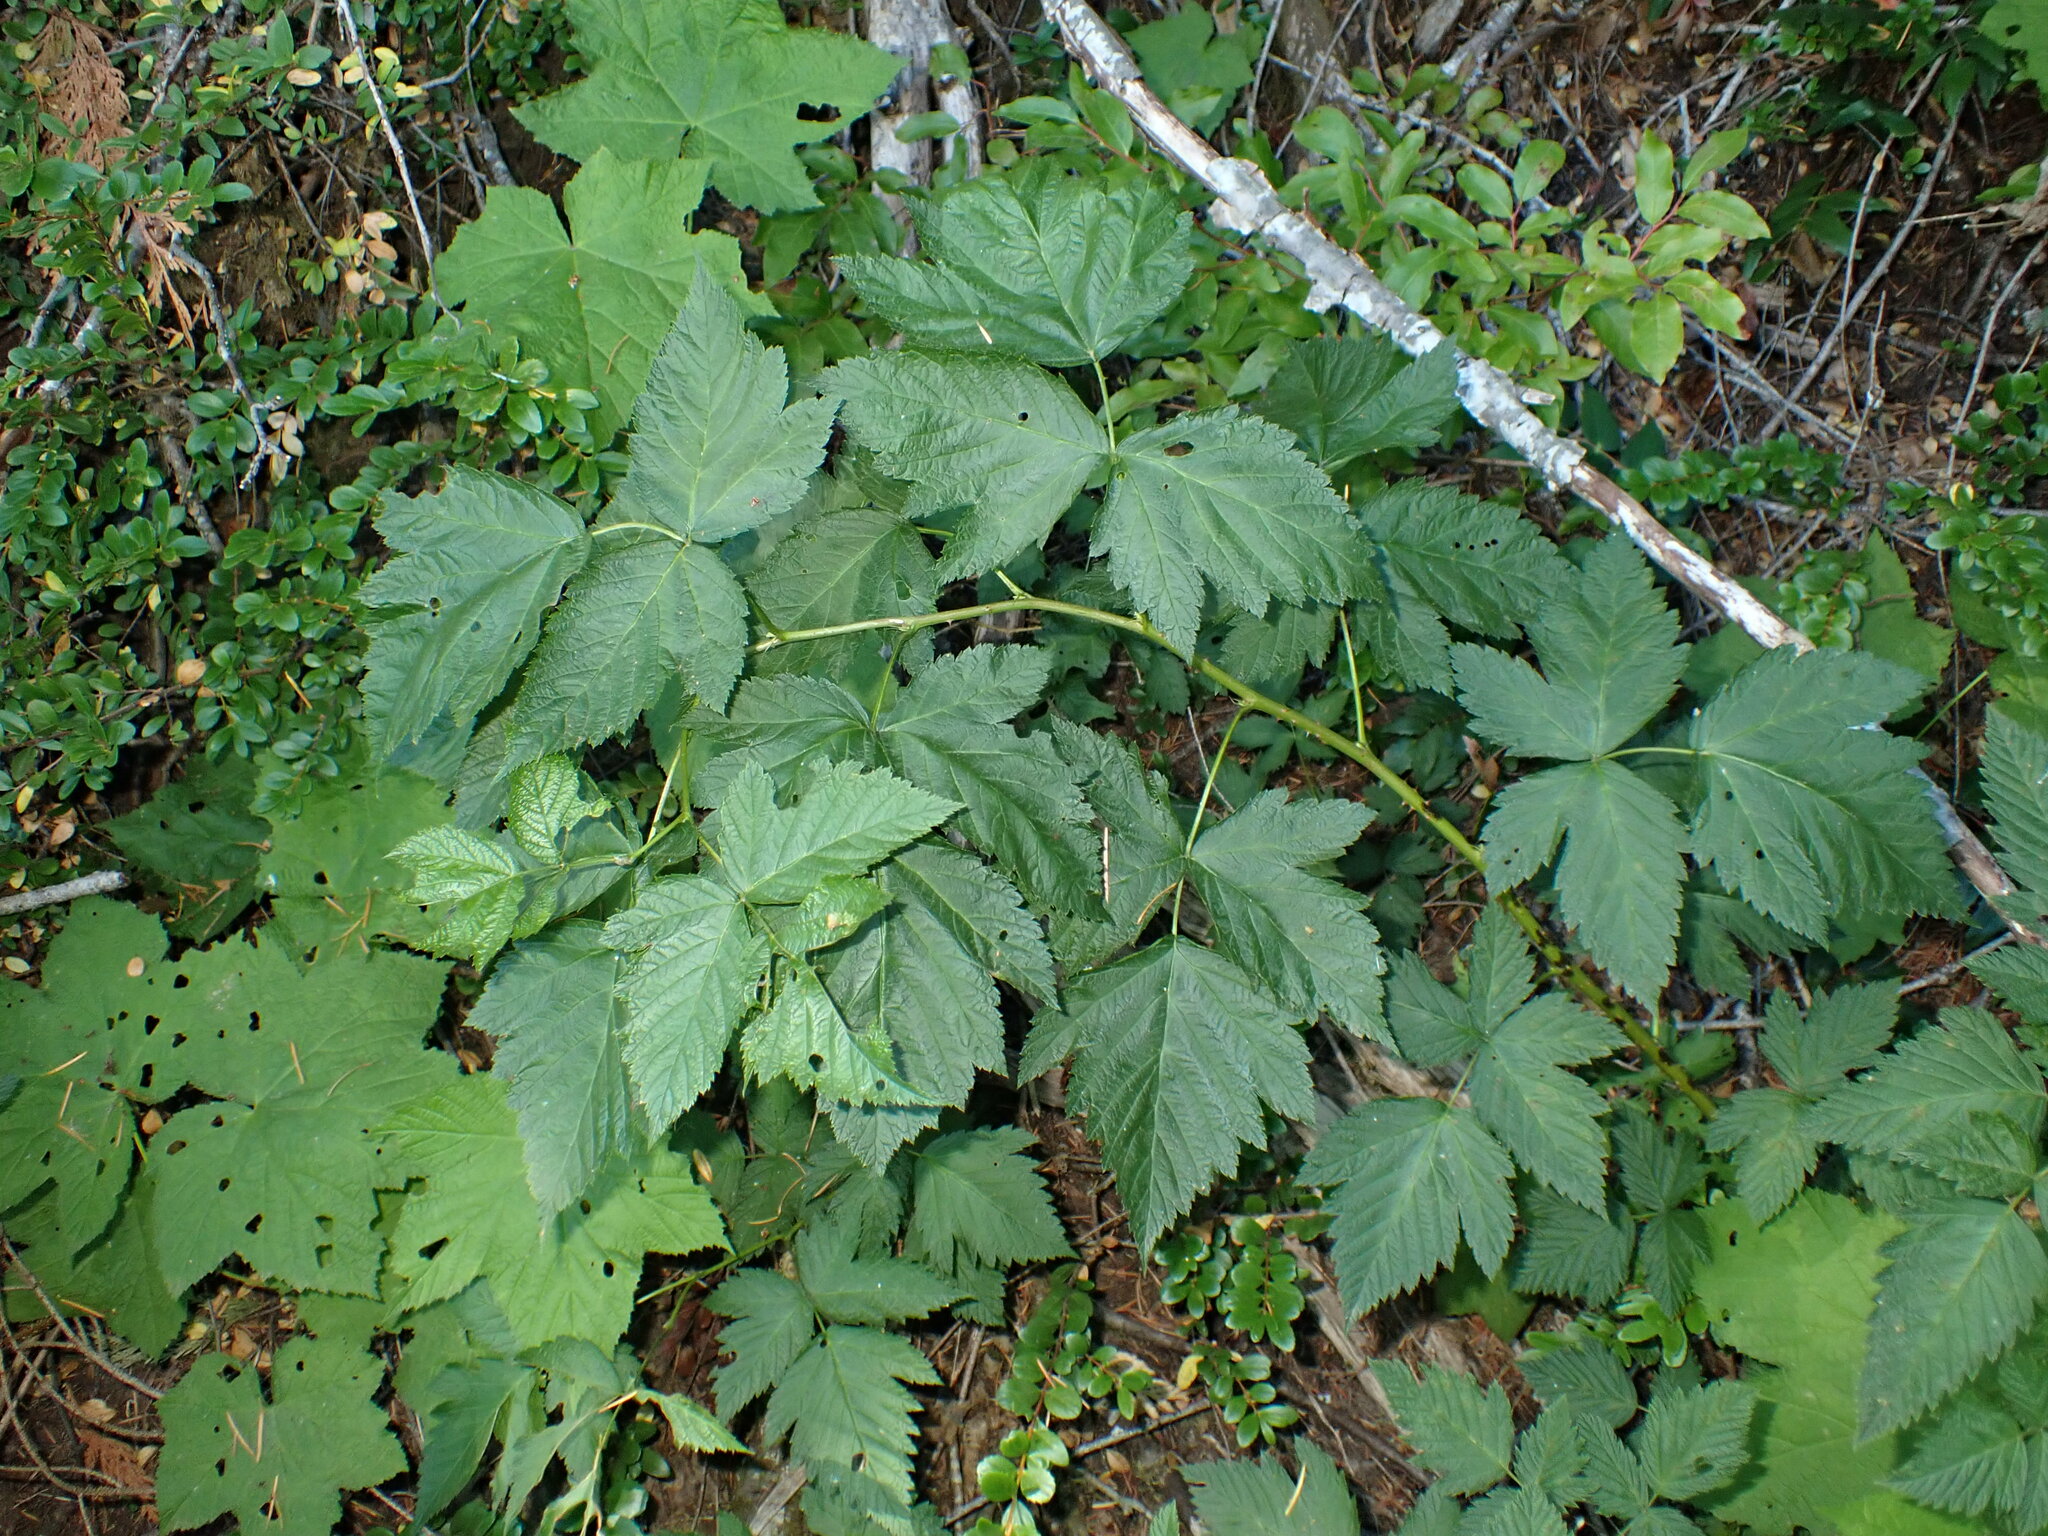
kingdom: Plantae
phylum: Tracheophyta
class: Magnoliopsida
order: Rosales
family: Rosaceae
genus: Rubus
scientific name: Rubus spectabilis
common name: Salmonberry
